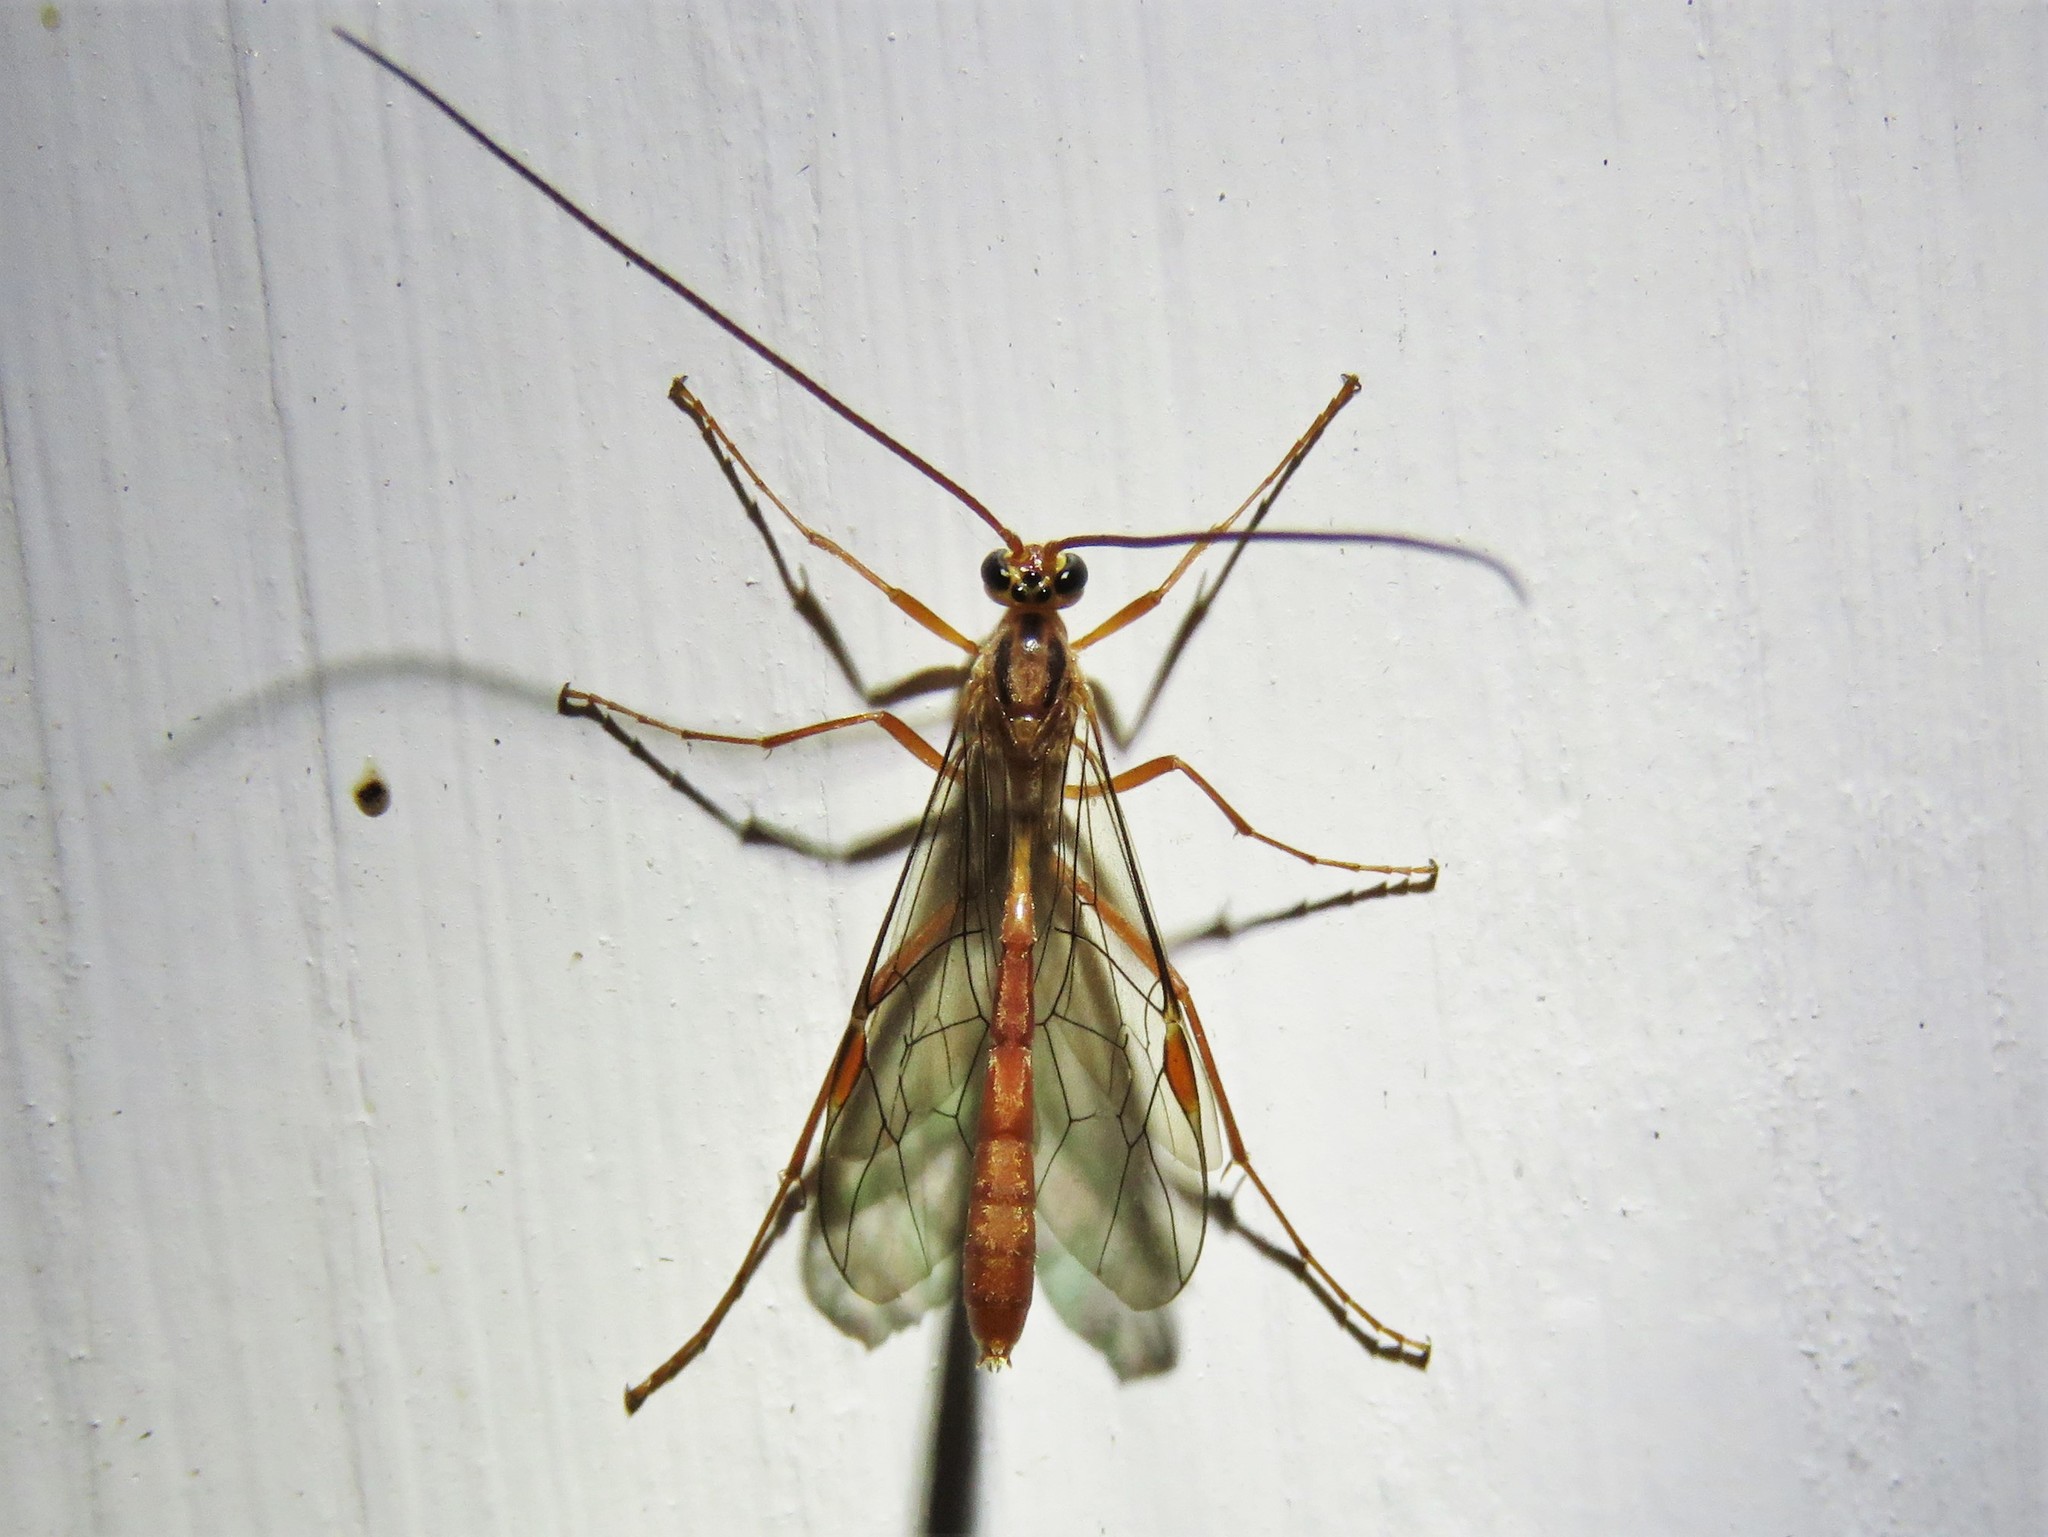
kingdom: Animalia
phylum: Arthropoda
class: Insecta
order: Hymenoptera
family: Ichneumonidae
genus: Ophion
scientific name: Ophion
